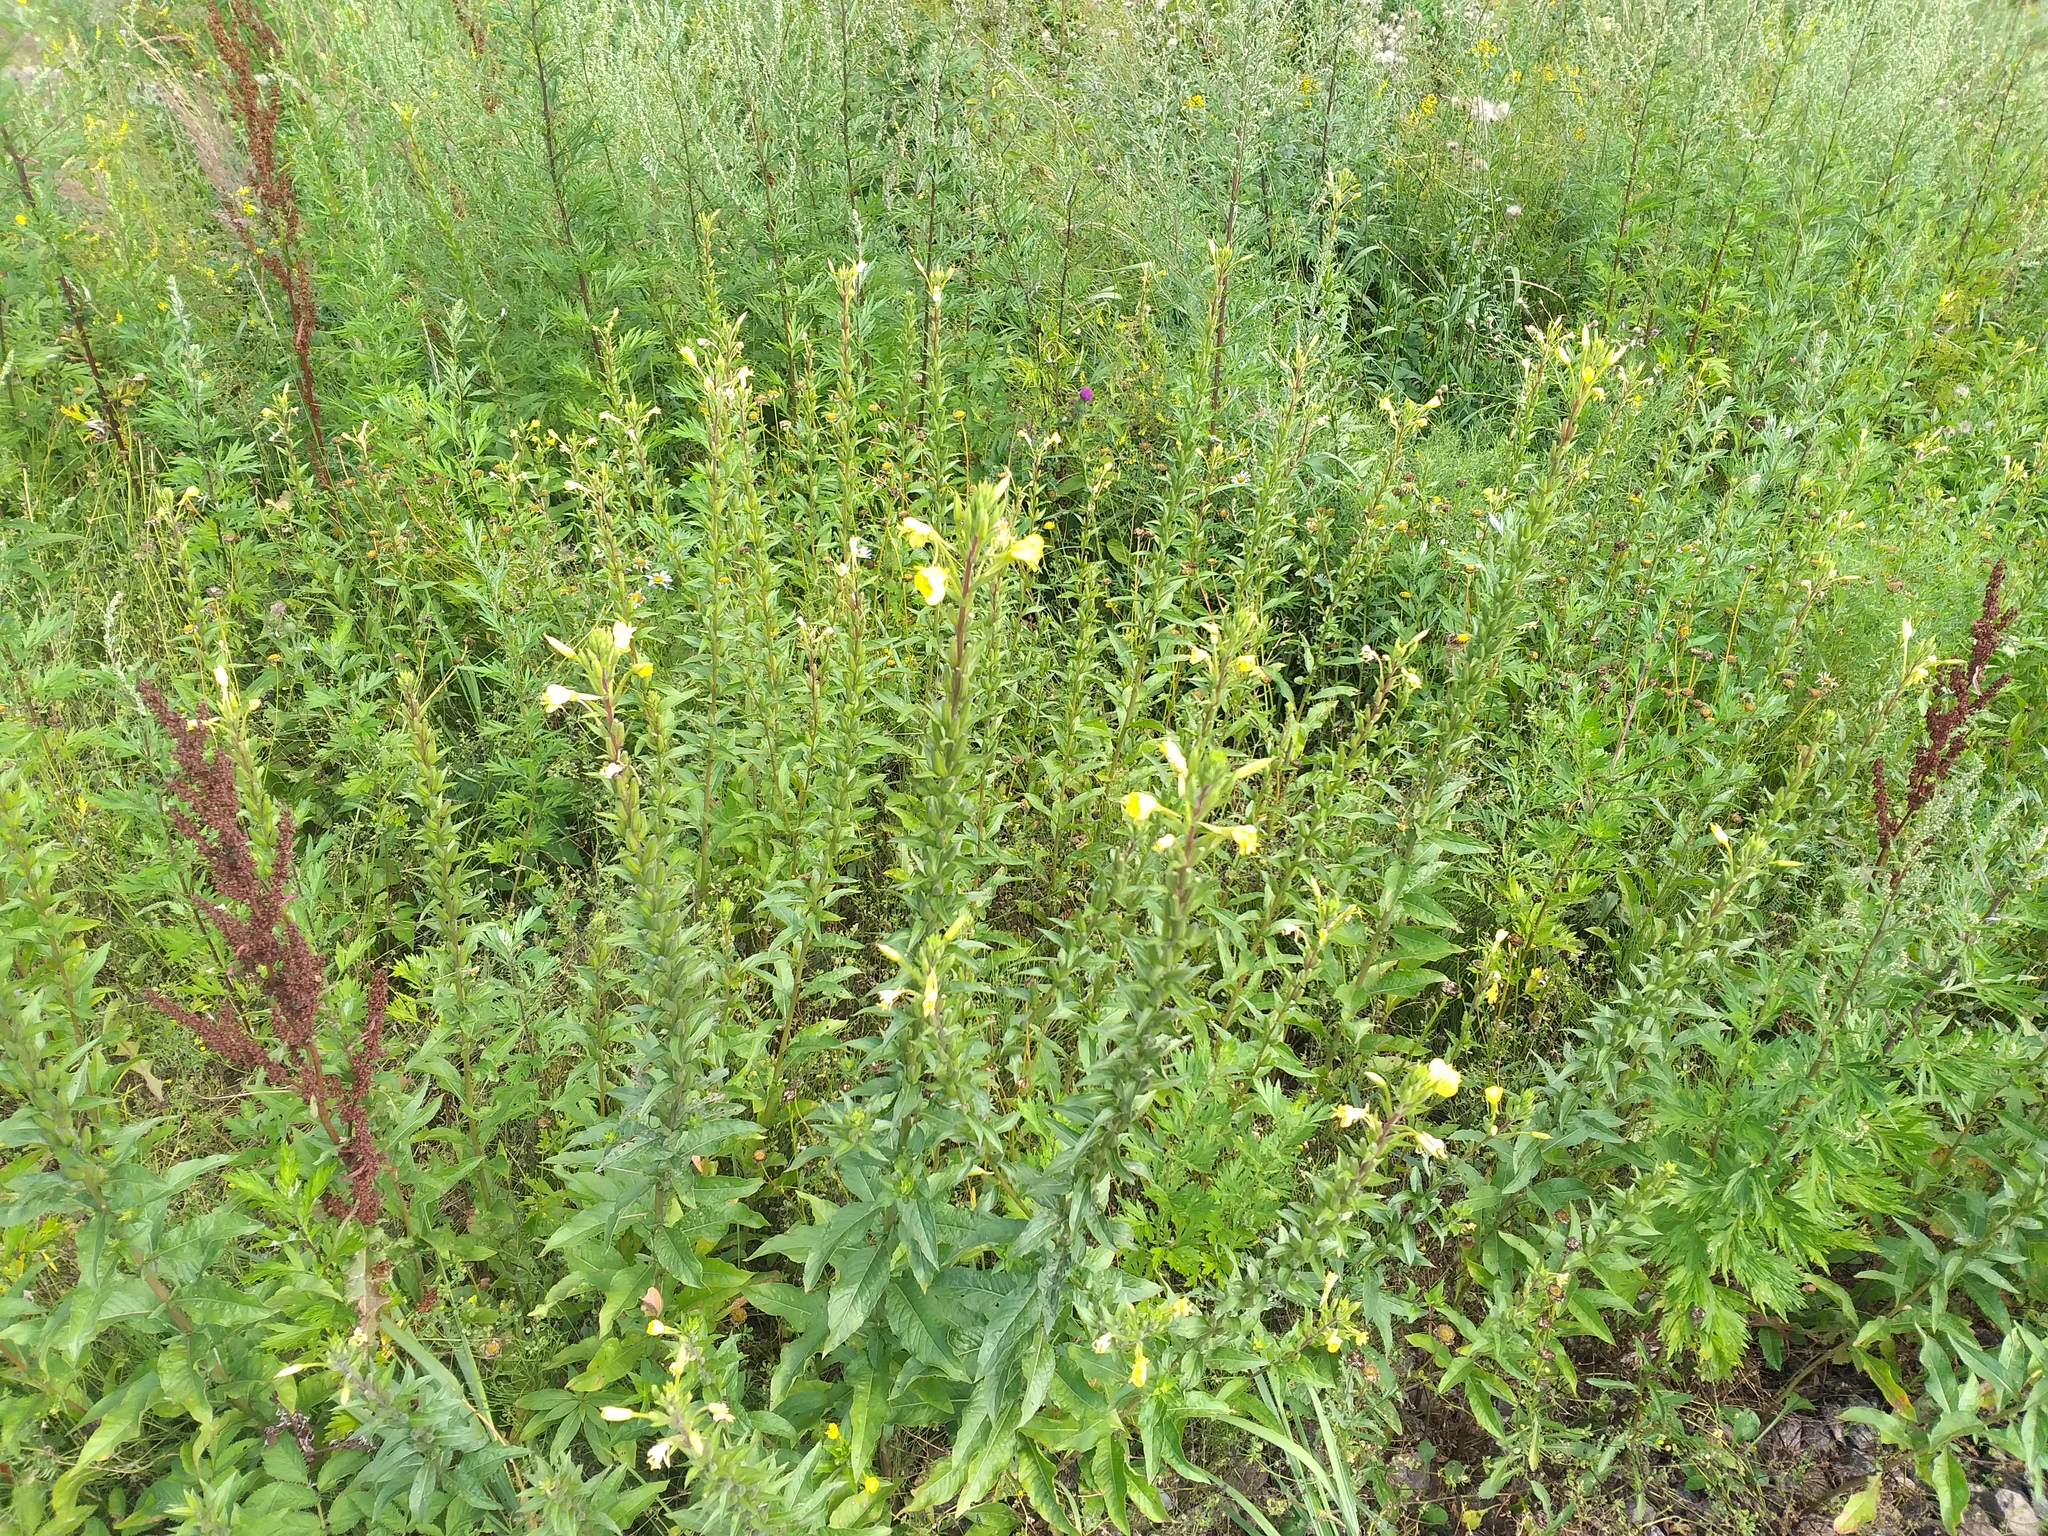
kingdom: Plantae
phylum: Tracheophyta
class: Magnoliopsida
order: Myrtales
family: Onagraceae
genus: Oenothera
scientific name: Oenothera rubricaulis
